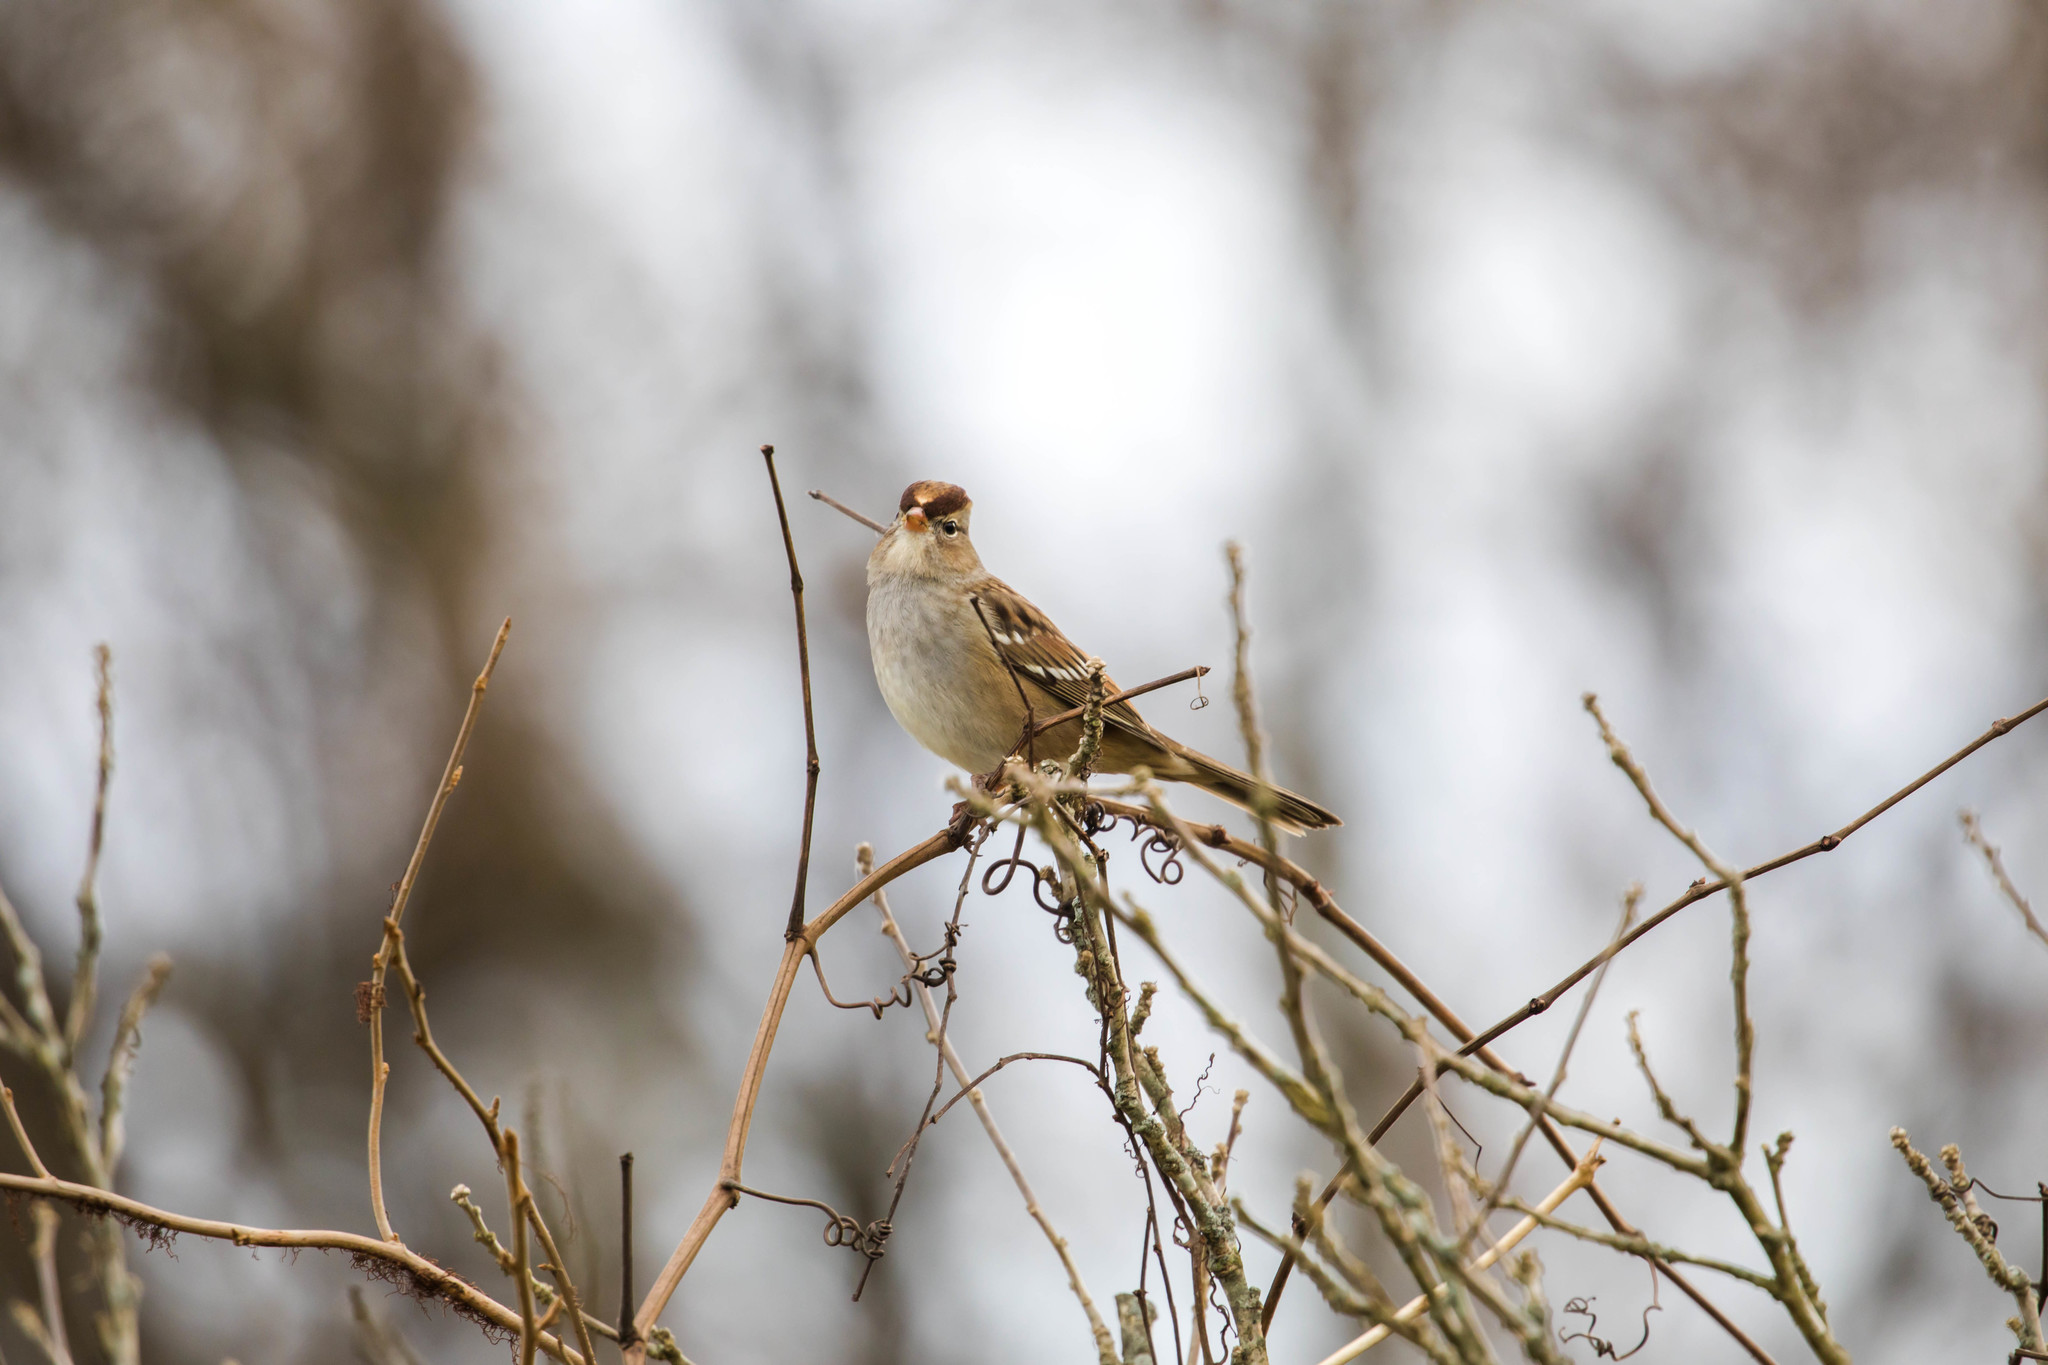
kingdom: Animalia
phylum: Chordata
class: Aves
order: Passeriformes
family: Passerellidae
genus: Zonotrichia
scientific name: Zonotrichia leucophrys
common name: White-crowned sparrow
